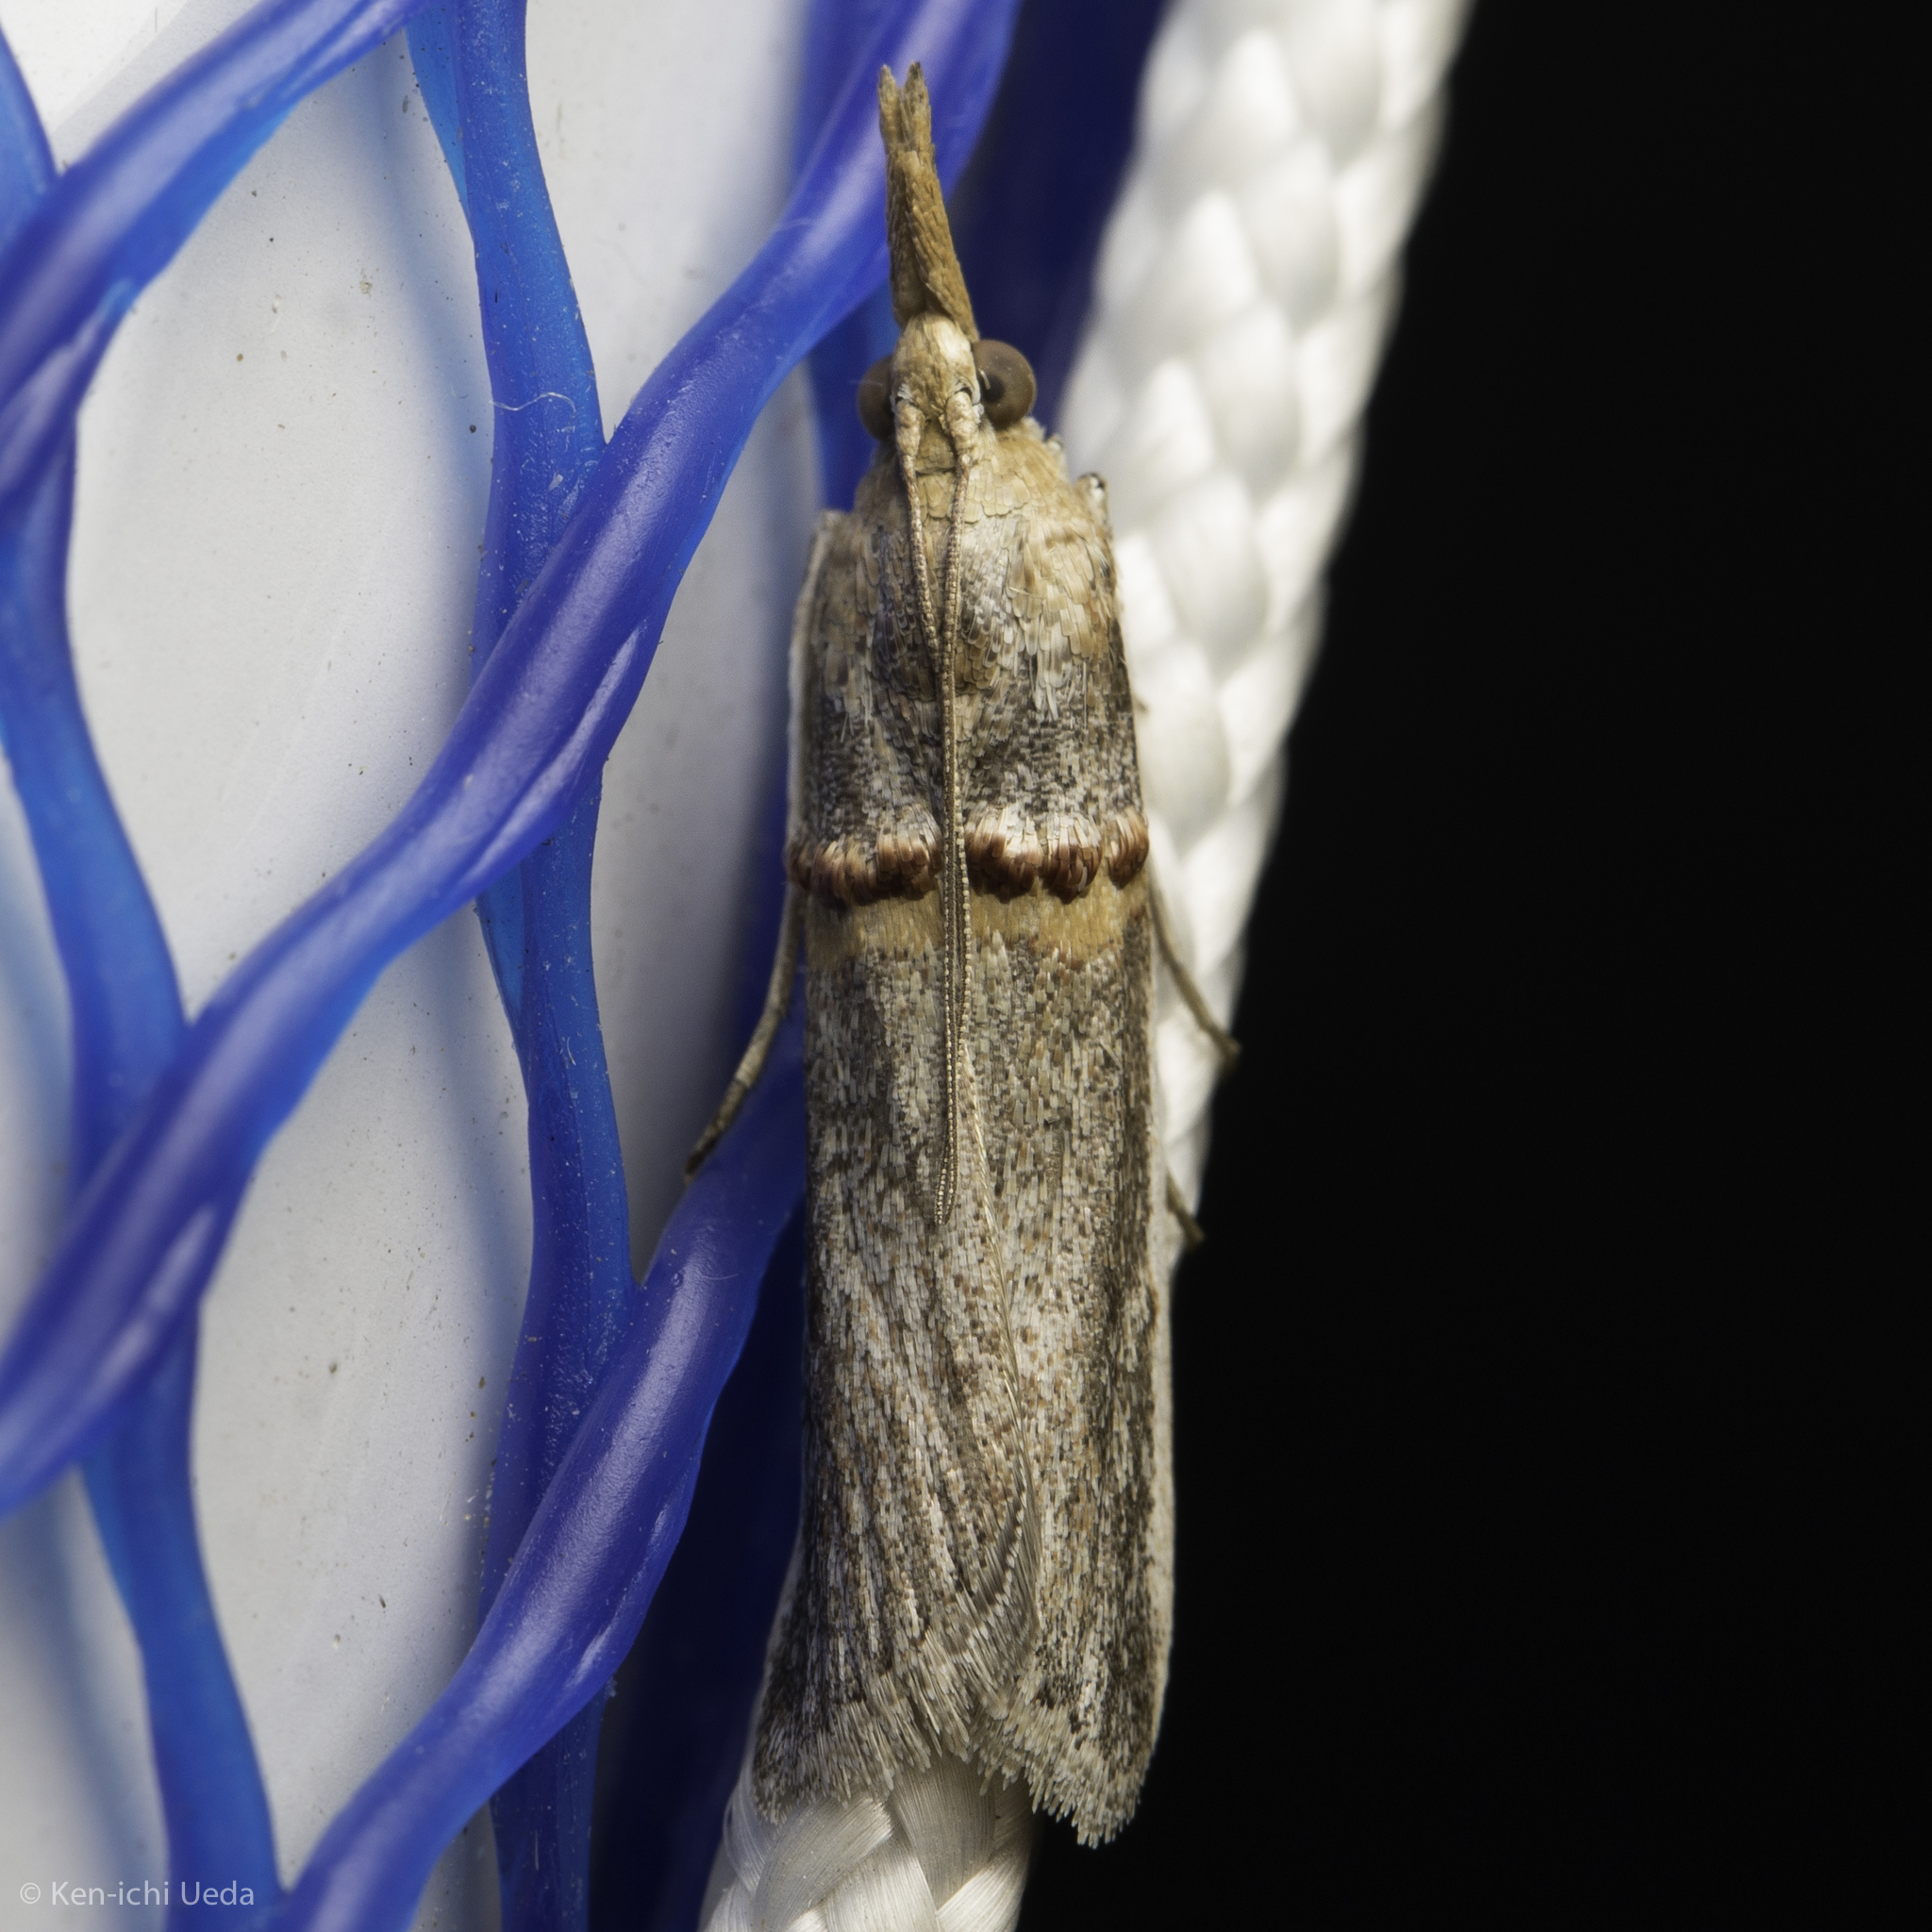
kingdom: Animalia
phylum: Arthropoda
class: Insecta
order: Lepidoptera
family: Pyralidae
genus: Etiella
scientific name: Etiella zinckenella
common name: Gold-banded etiella moth
